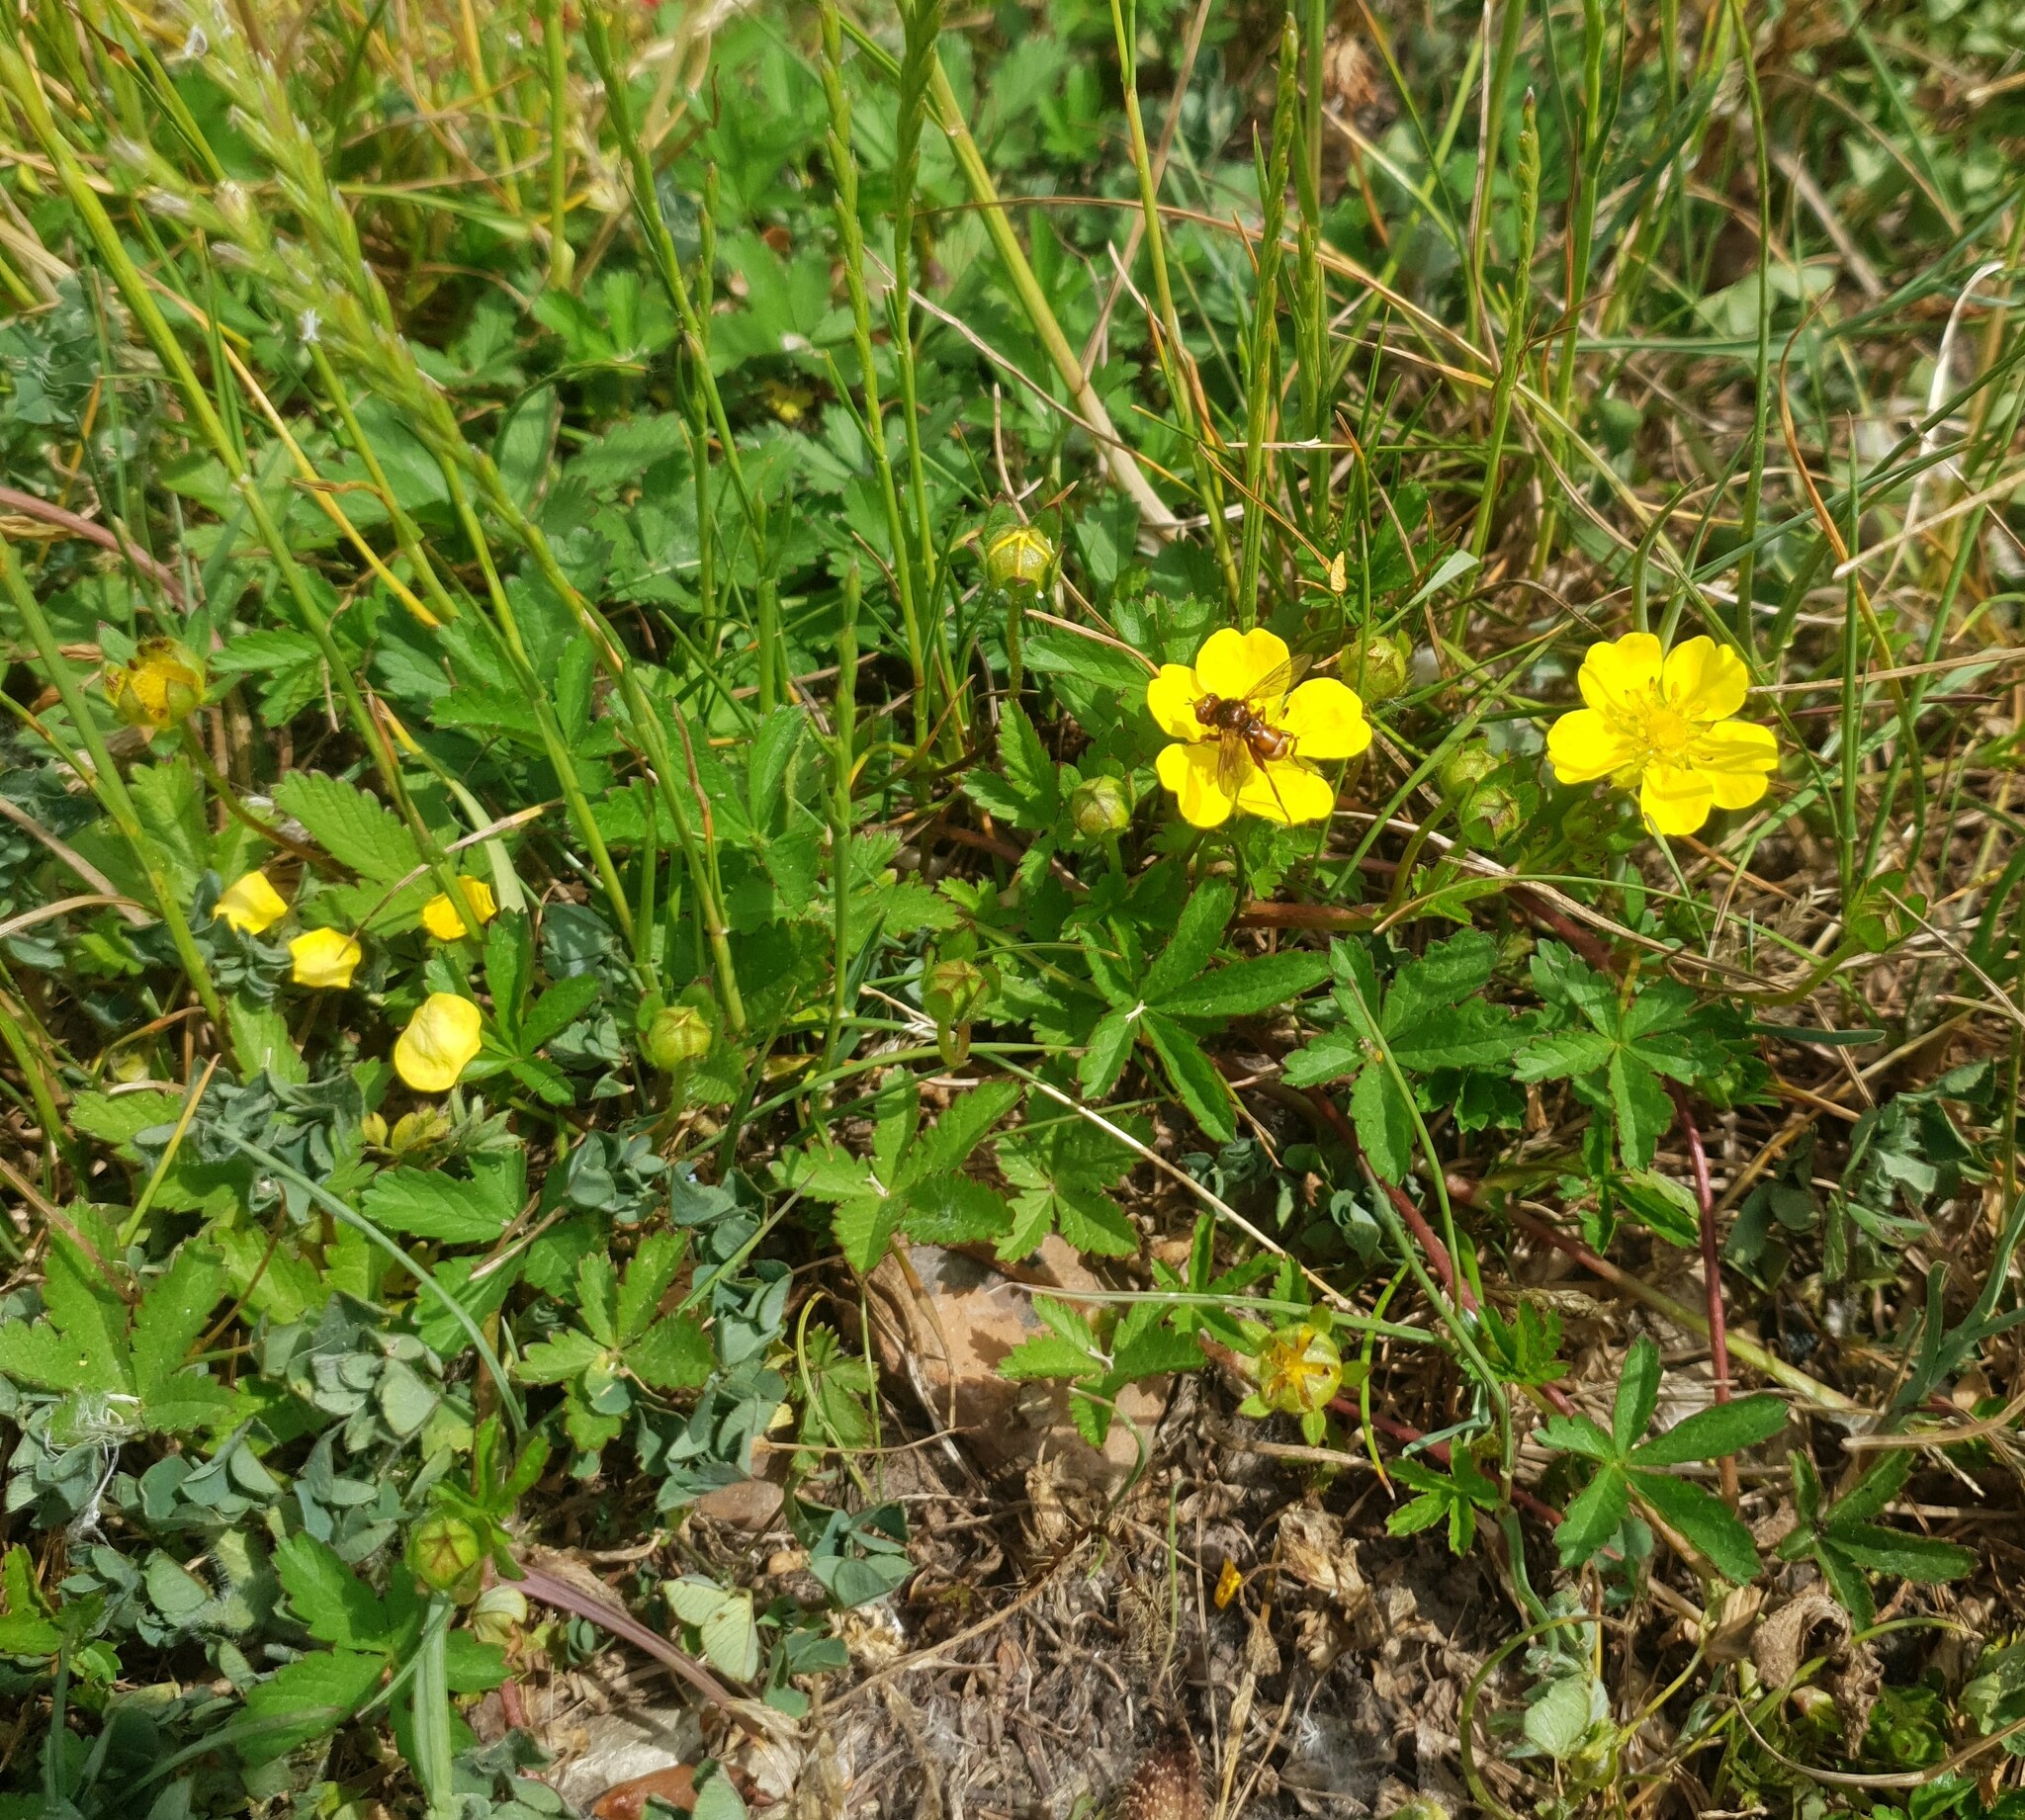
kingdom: Plantae
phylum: Tracheophyta
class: Magnoliopsida
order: Rosales
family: Rosaceae
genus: Potentilla
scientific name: Potentilla reptans
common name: Creeping cinquefoil
